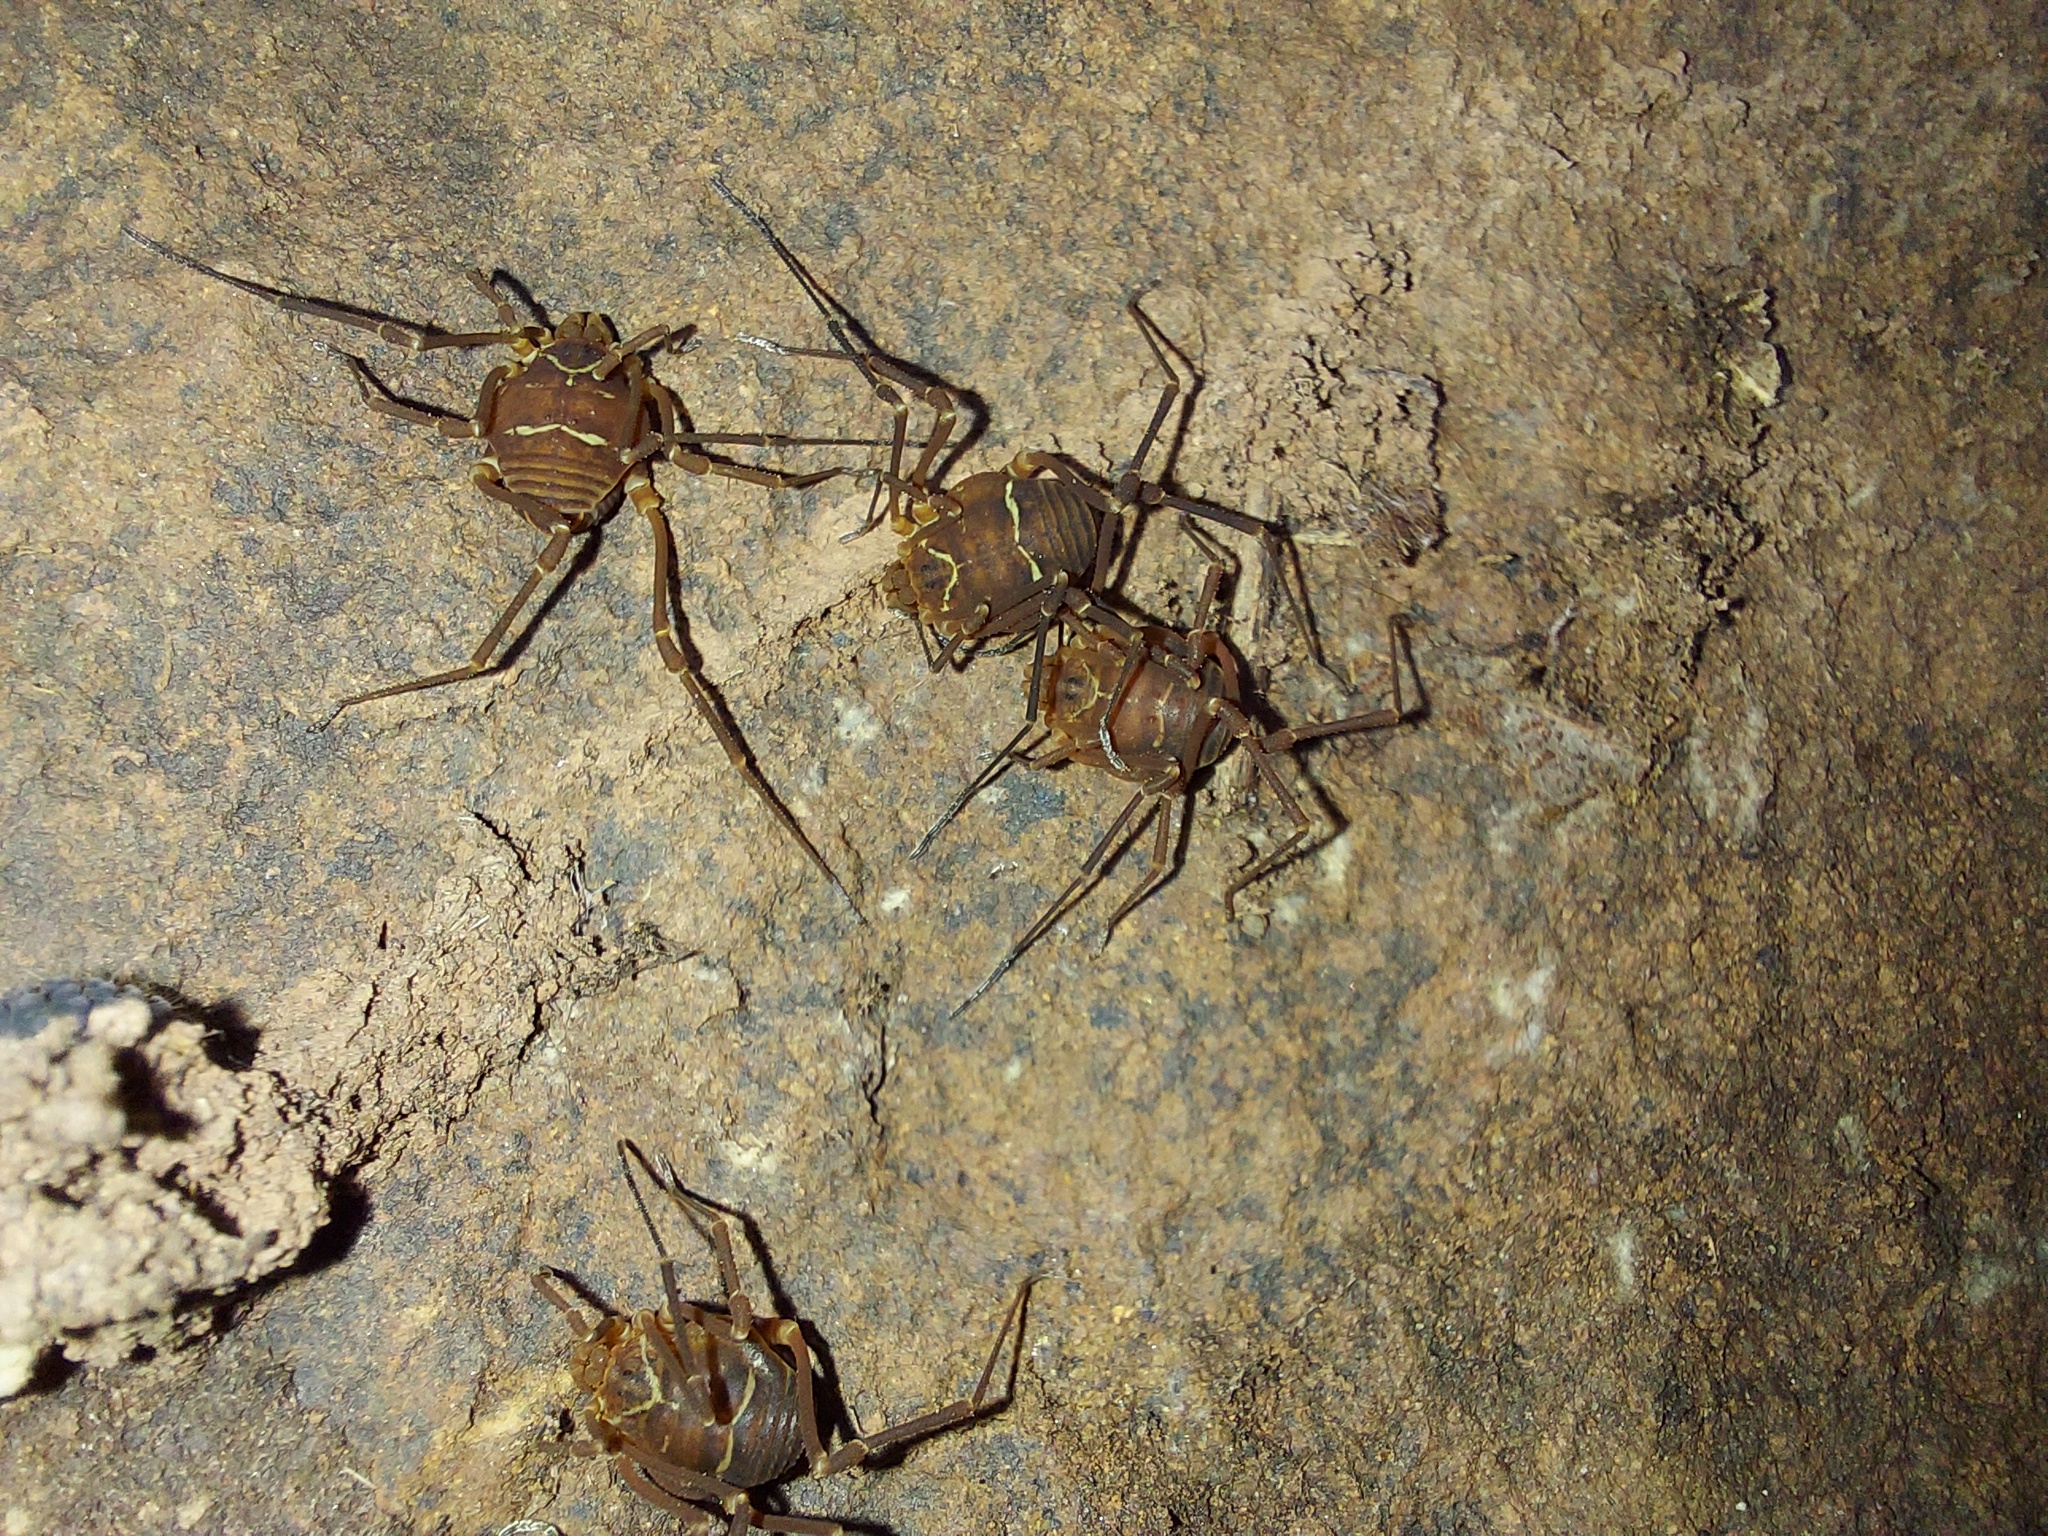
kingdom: Animalia
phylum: Arthropoda
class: Arachnida
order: Opiliones
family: Cosmetidae
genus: Libitioides
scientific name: Libitioides sayi
